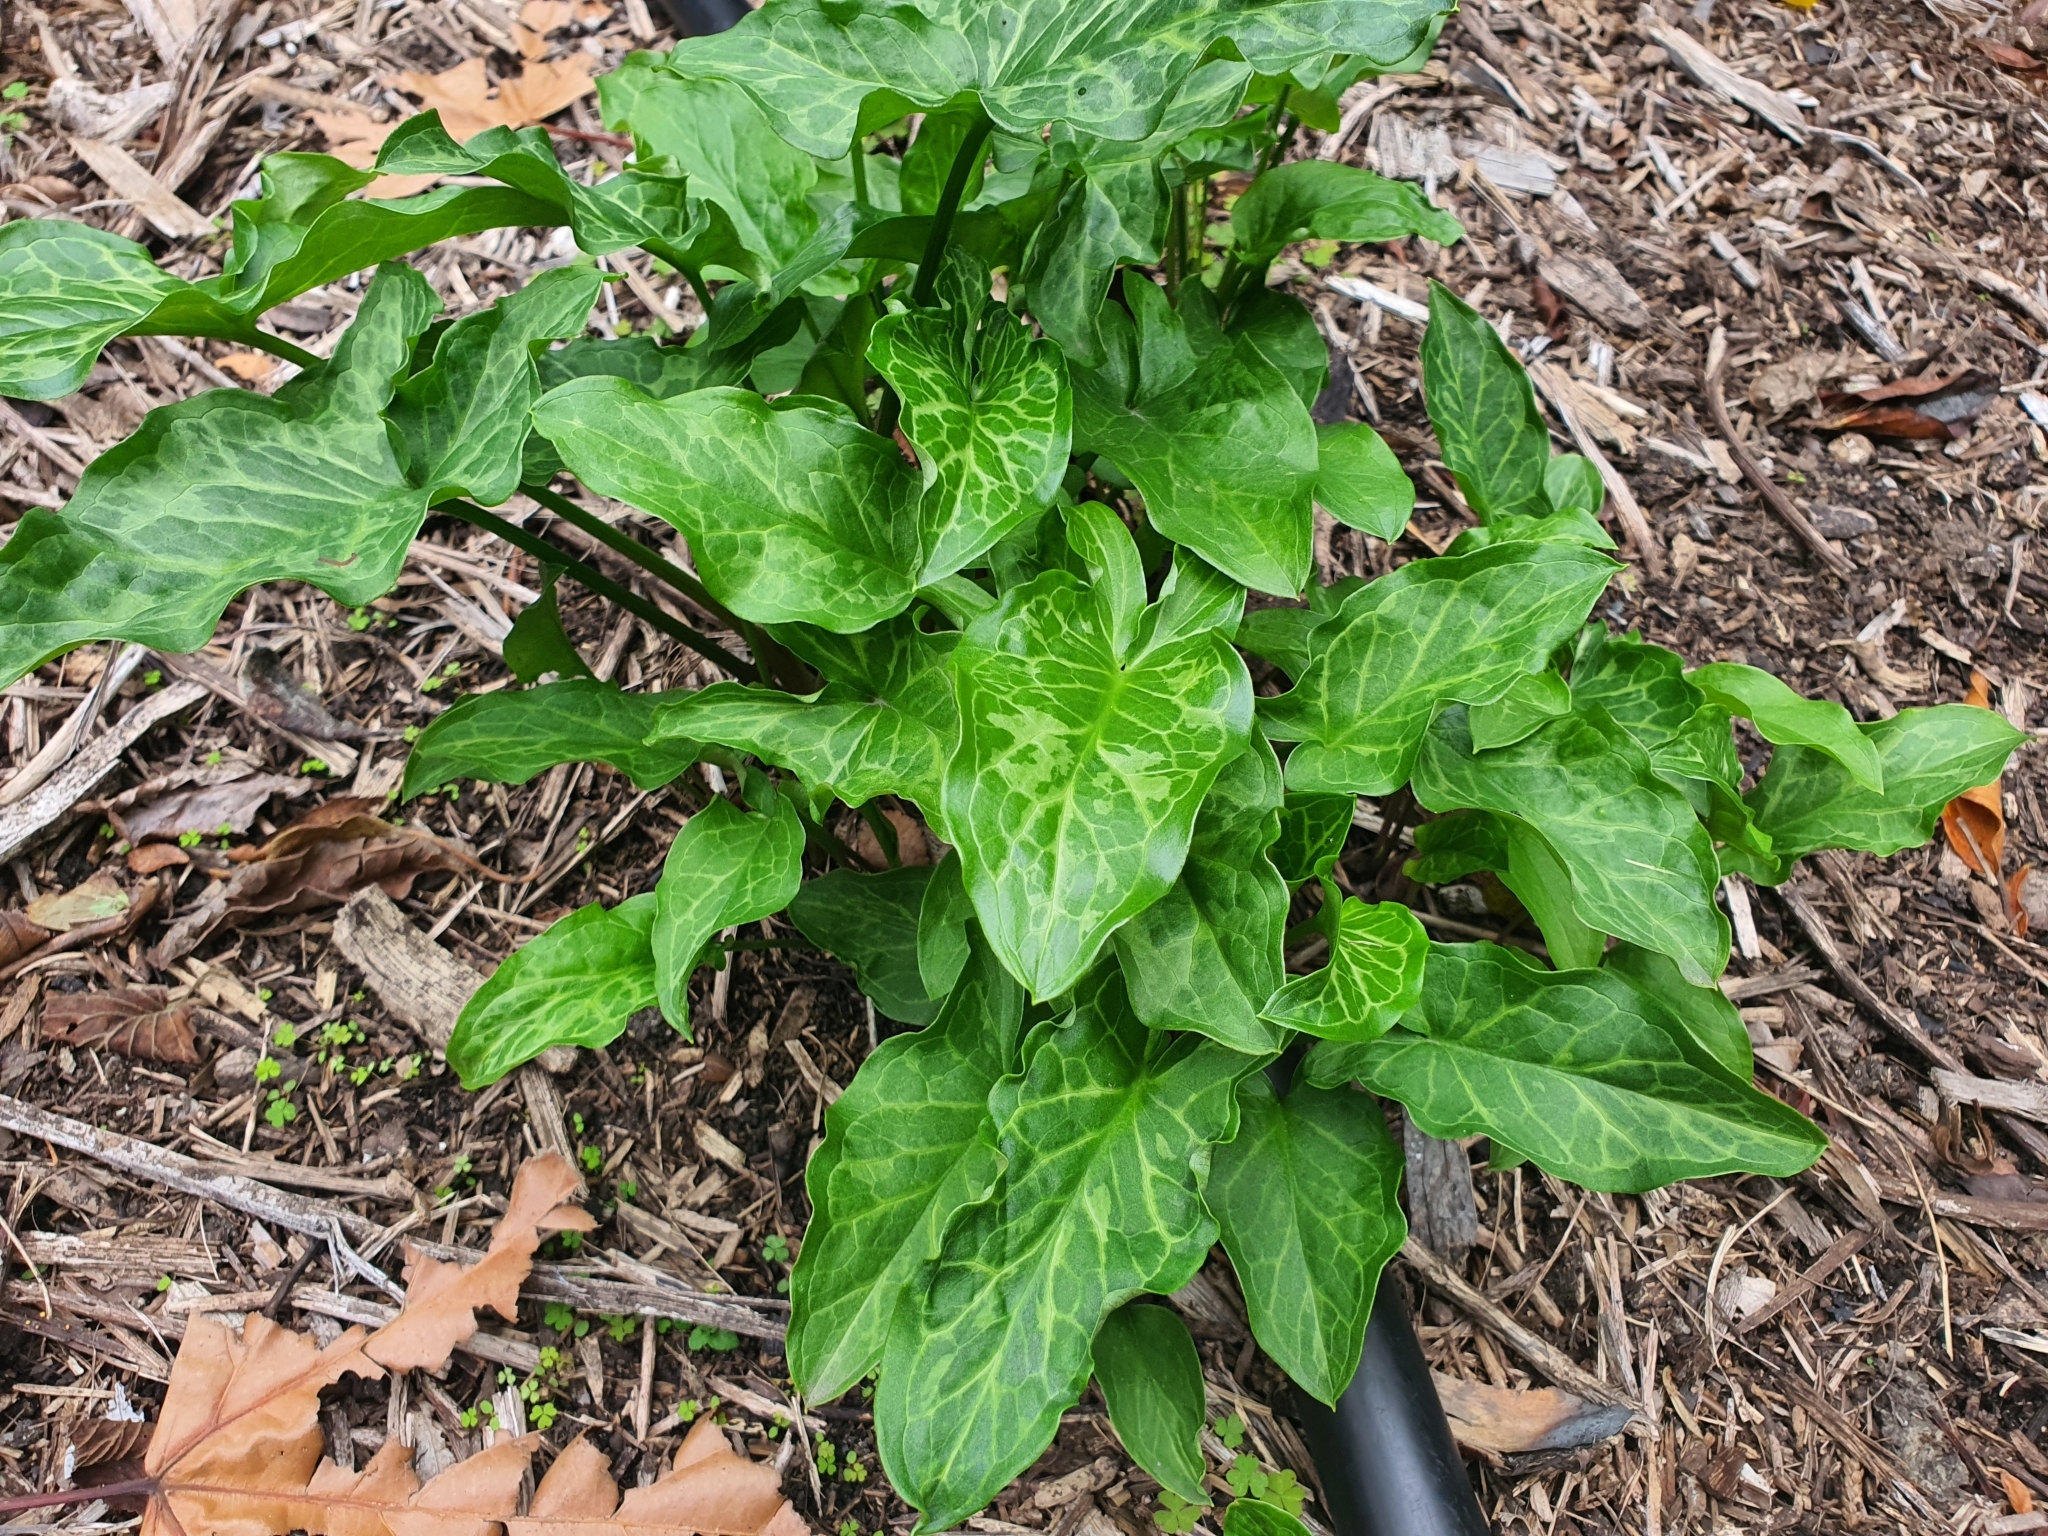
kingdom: Plantae
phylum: Tracheophyta
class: Liliopsida
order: Alismatales
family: Araceae
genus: Arum
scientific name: Arum italicum
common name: Italian lords-and-ladies
